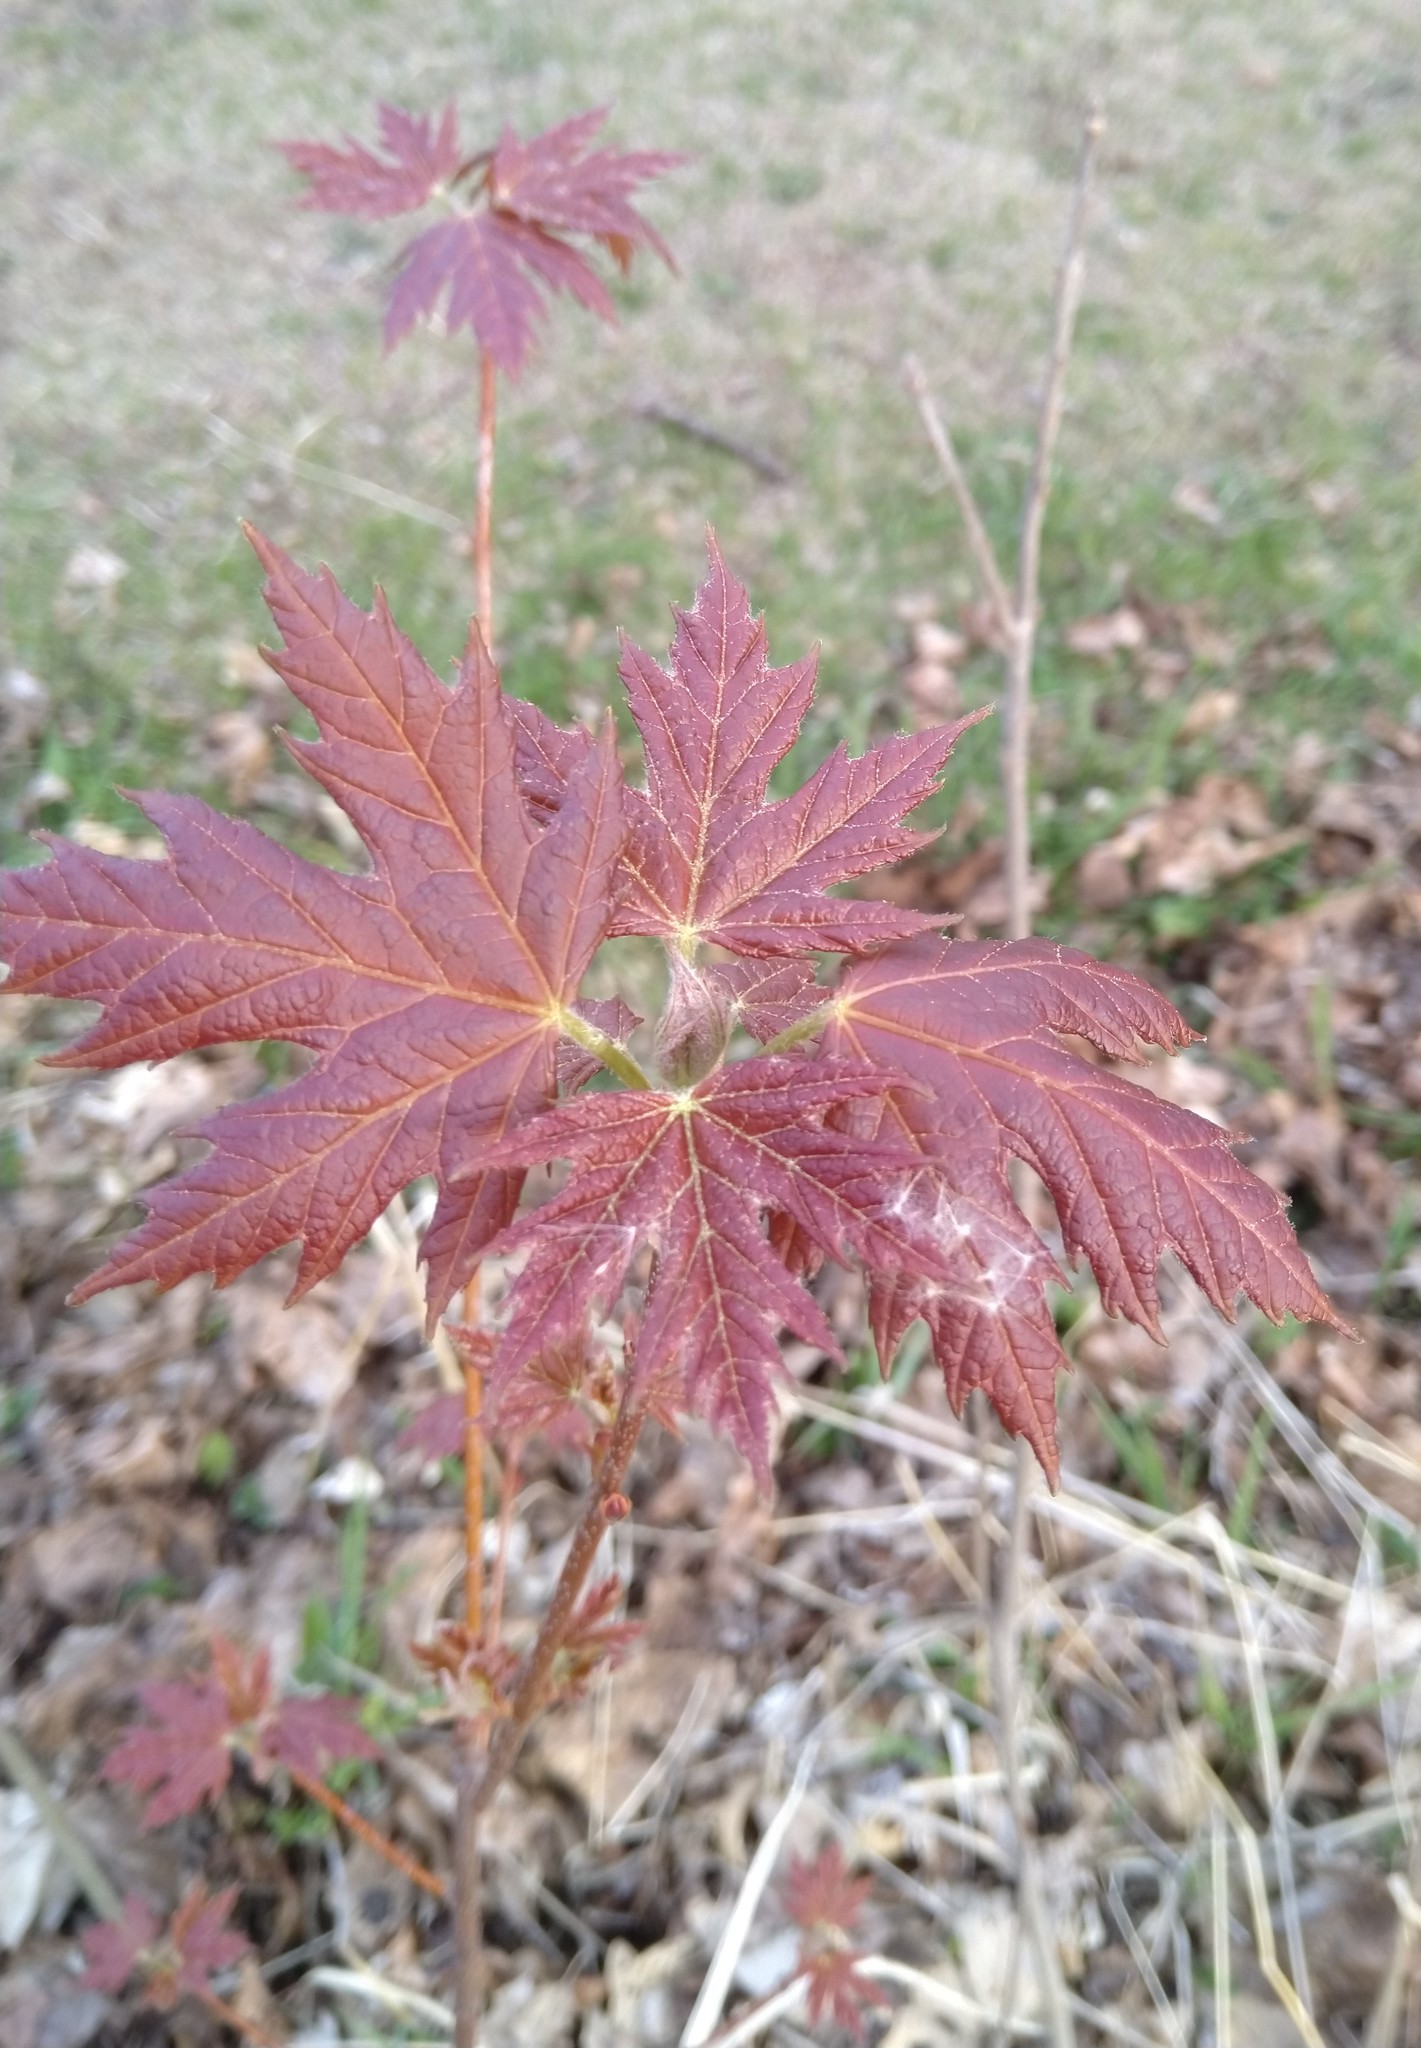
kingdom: Plantae
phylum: Tracheophyta
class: Magnoliopsida
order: Sapindales
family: Sapindaceae
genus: Acer
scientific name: Acer saccharinum
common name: Silver maple
